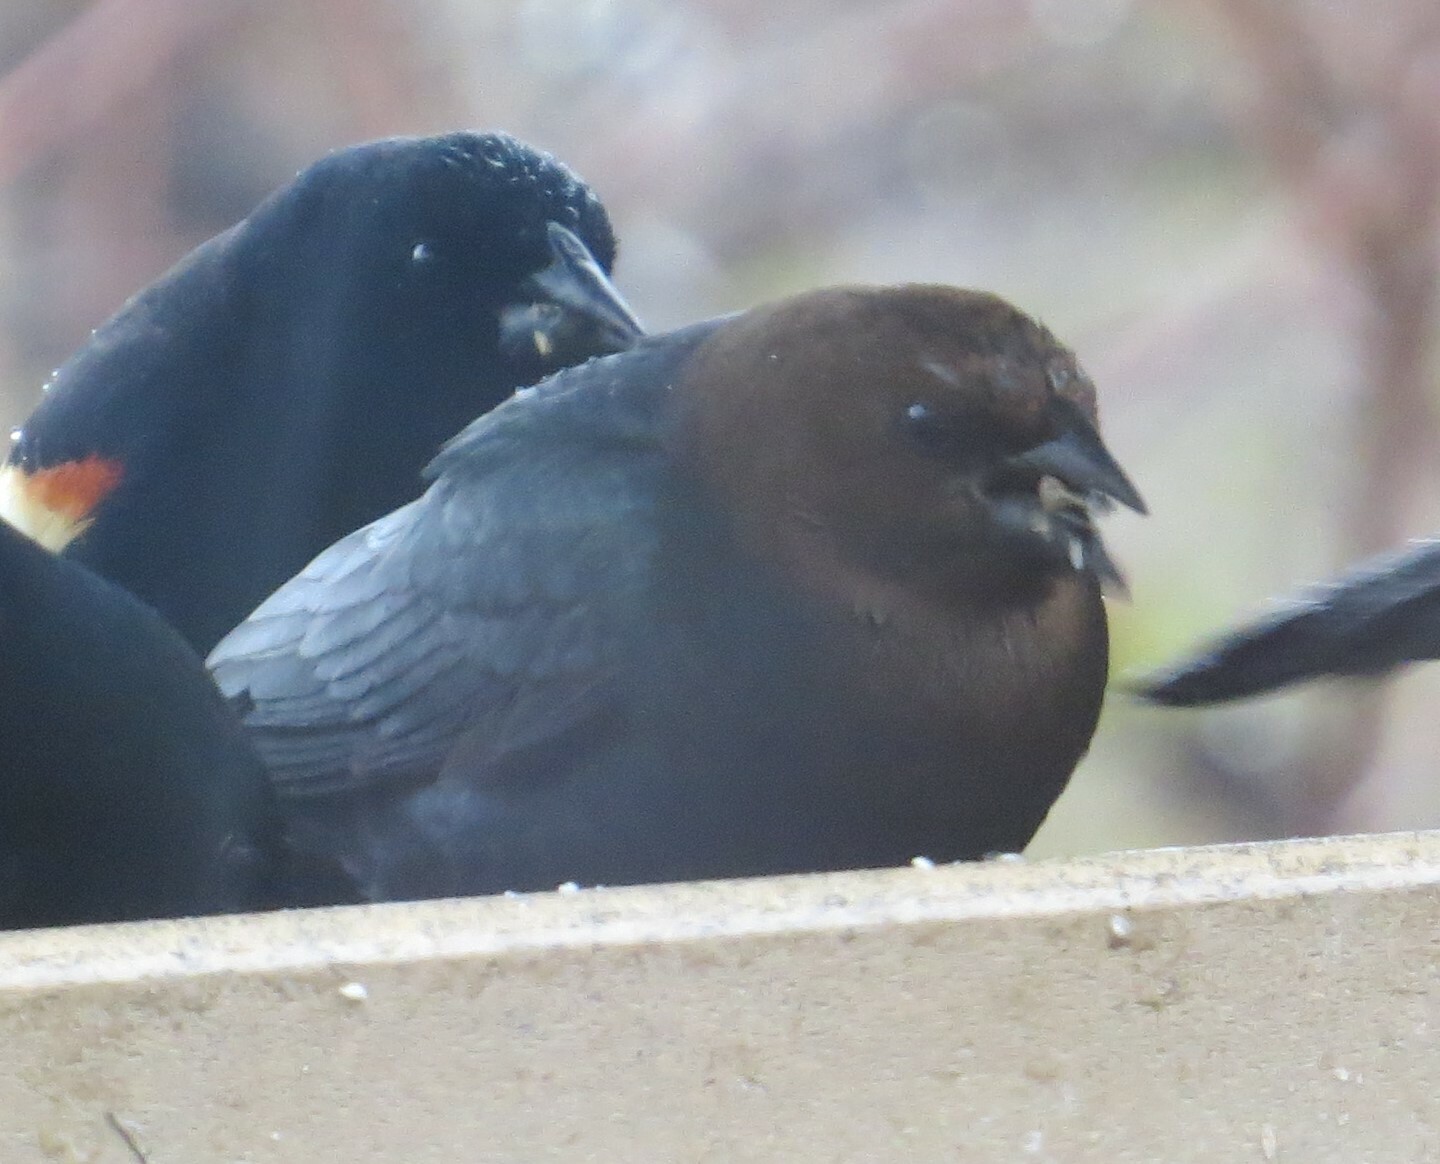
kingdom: Animalia
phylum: Chordata
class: Aves
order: Passeriformes
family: Icteridae
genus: Molothrus
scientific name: Molothrus ater
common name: Brown-headed cowbird
